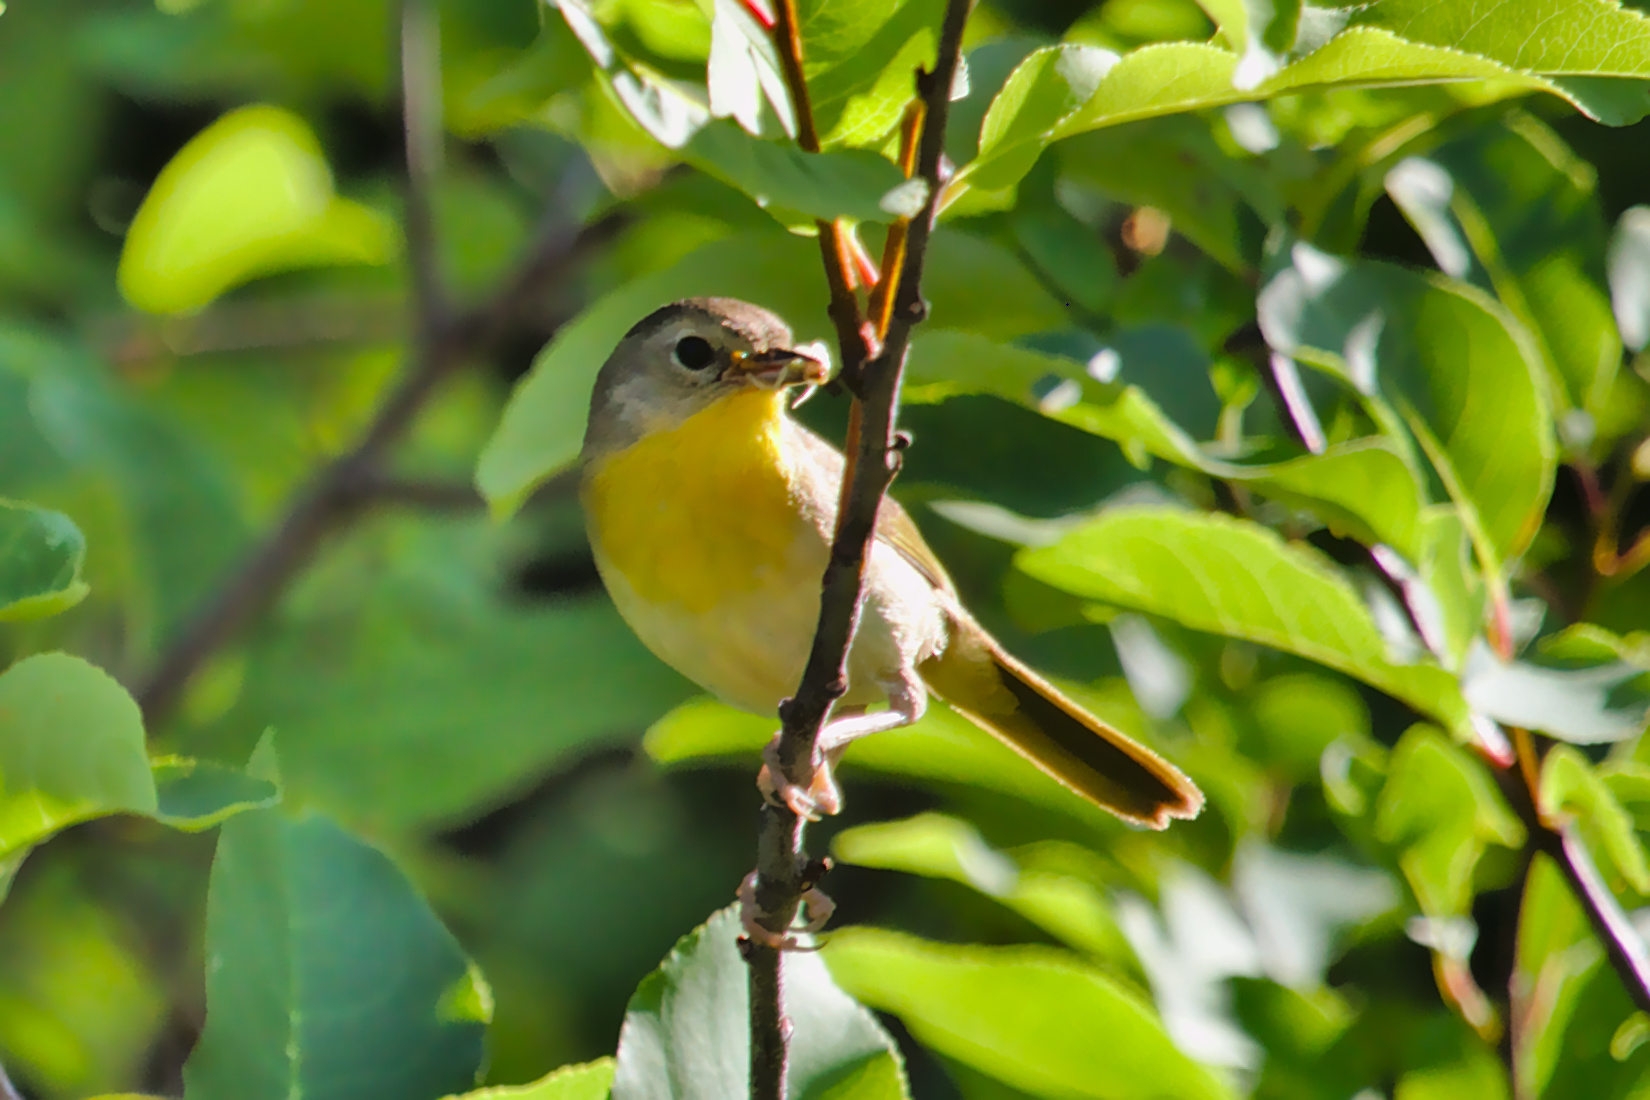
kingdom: Animalia
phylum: Chordata
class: Aves
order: Passeriformes
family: Parulidae
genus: Geothlypis
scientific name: Geothlypis trichas
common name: Common yellowthroat
